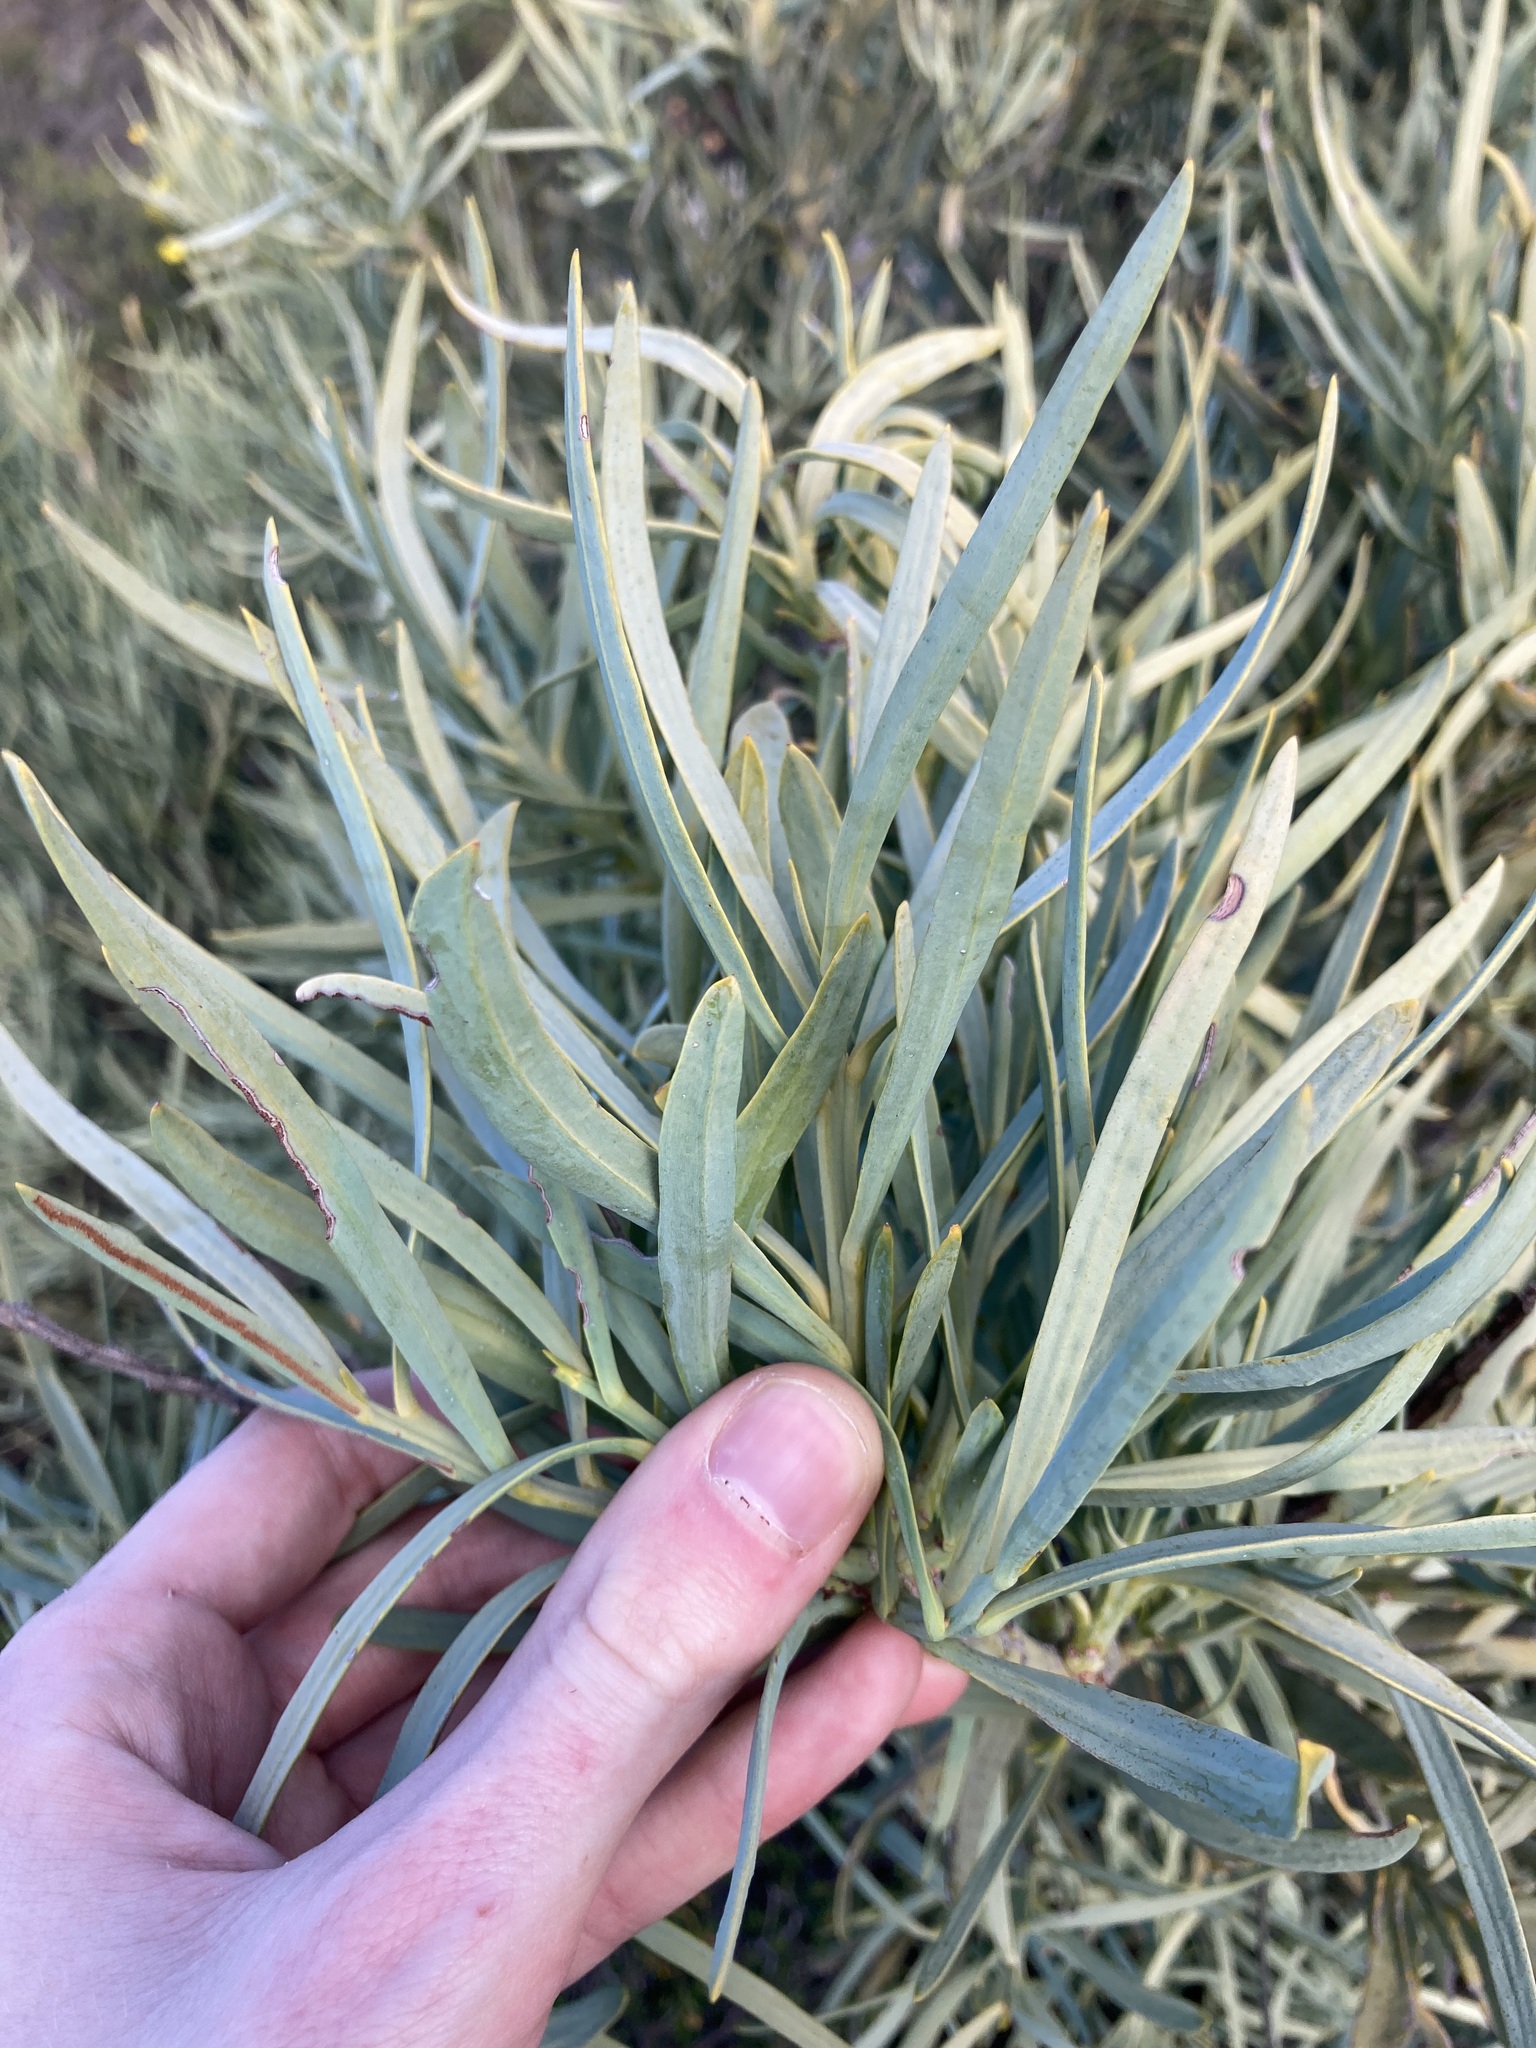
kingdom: Plantae
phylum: Tracheophyta
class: Magnoliopsida
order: Santalales
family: Loranthaceae
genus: Nuytsia
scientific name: Nuytsia floribunda
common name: Western australian christmastree
